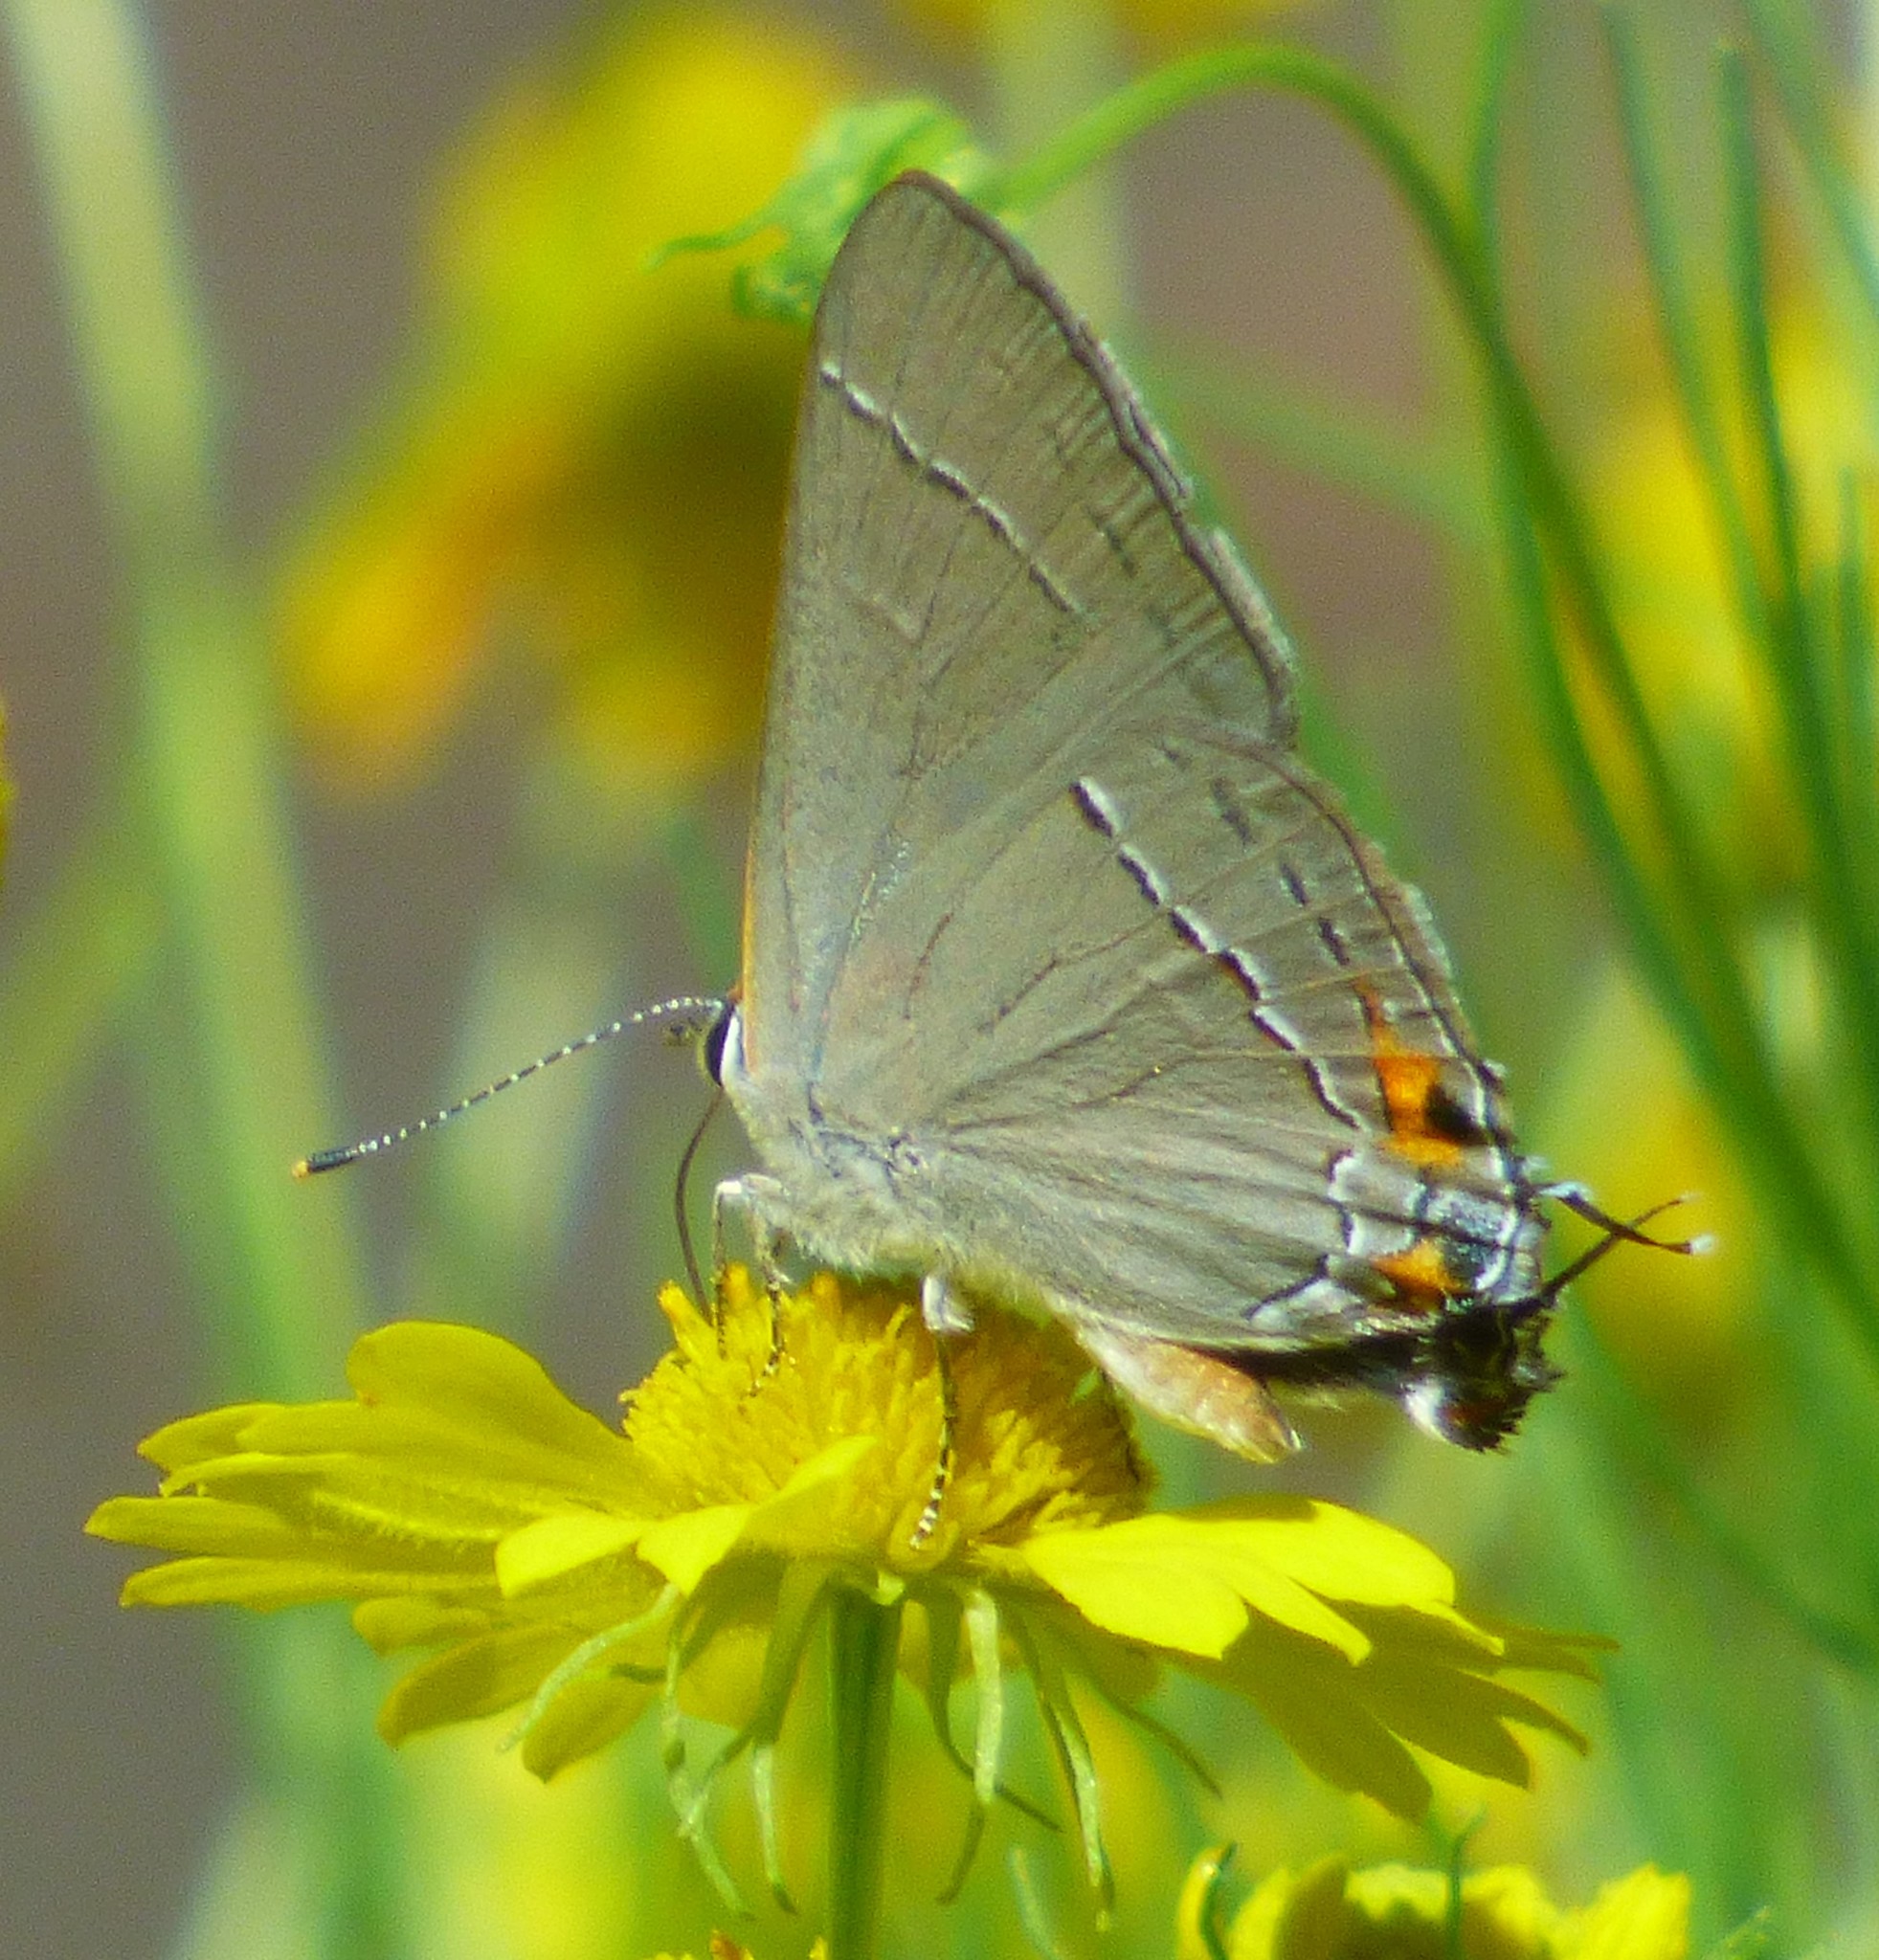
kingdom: Animalia
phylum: Arthropoda
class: Insecta
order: Lepidoptera
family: Lycaenidae
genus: Strymon
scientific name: Strymon melinus
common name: Gray hairstreak
